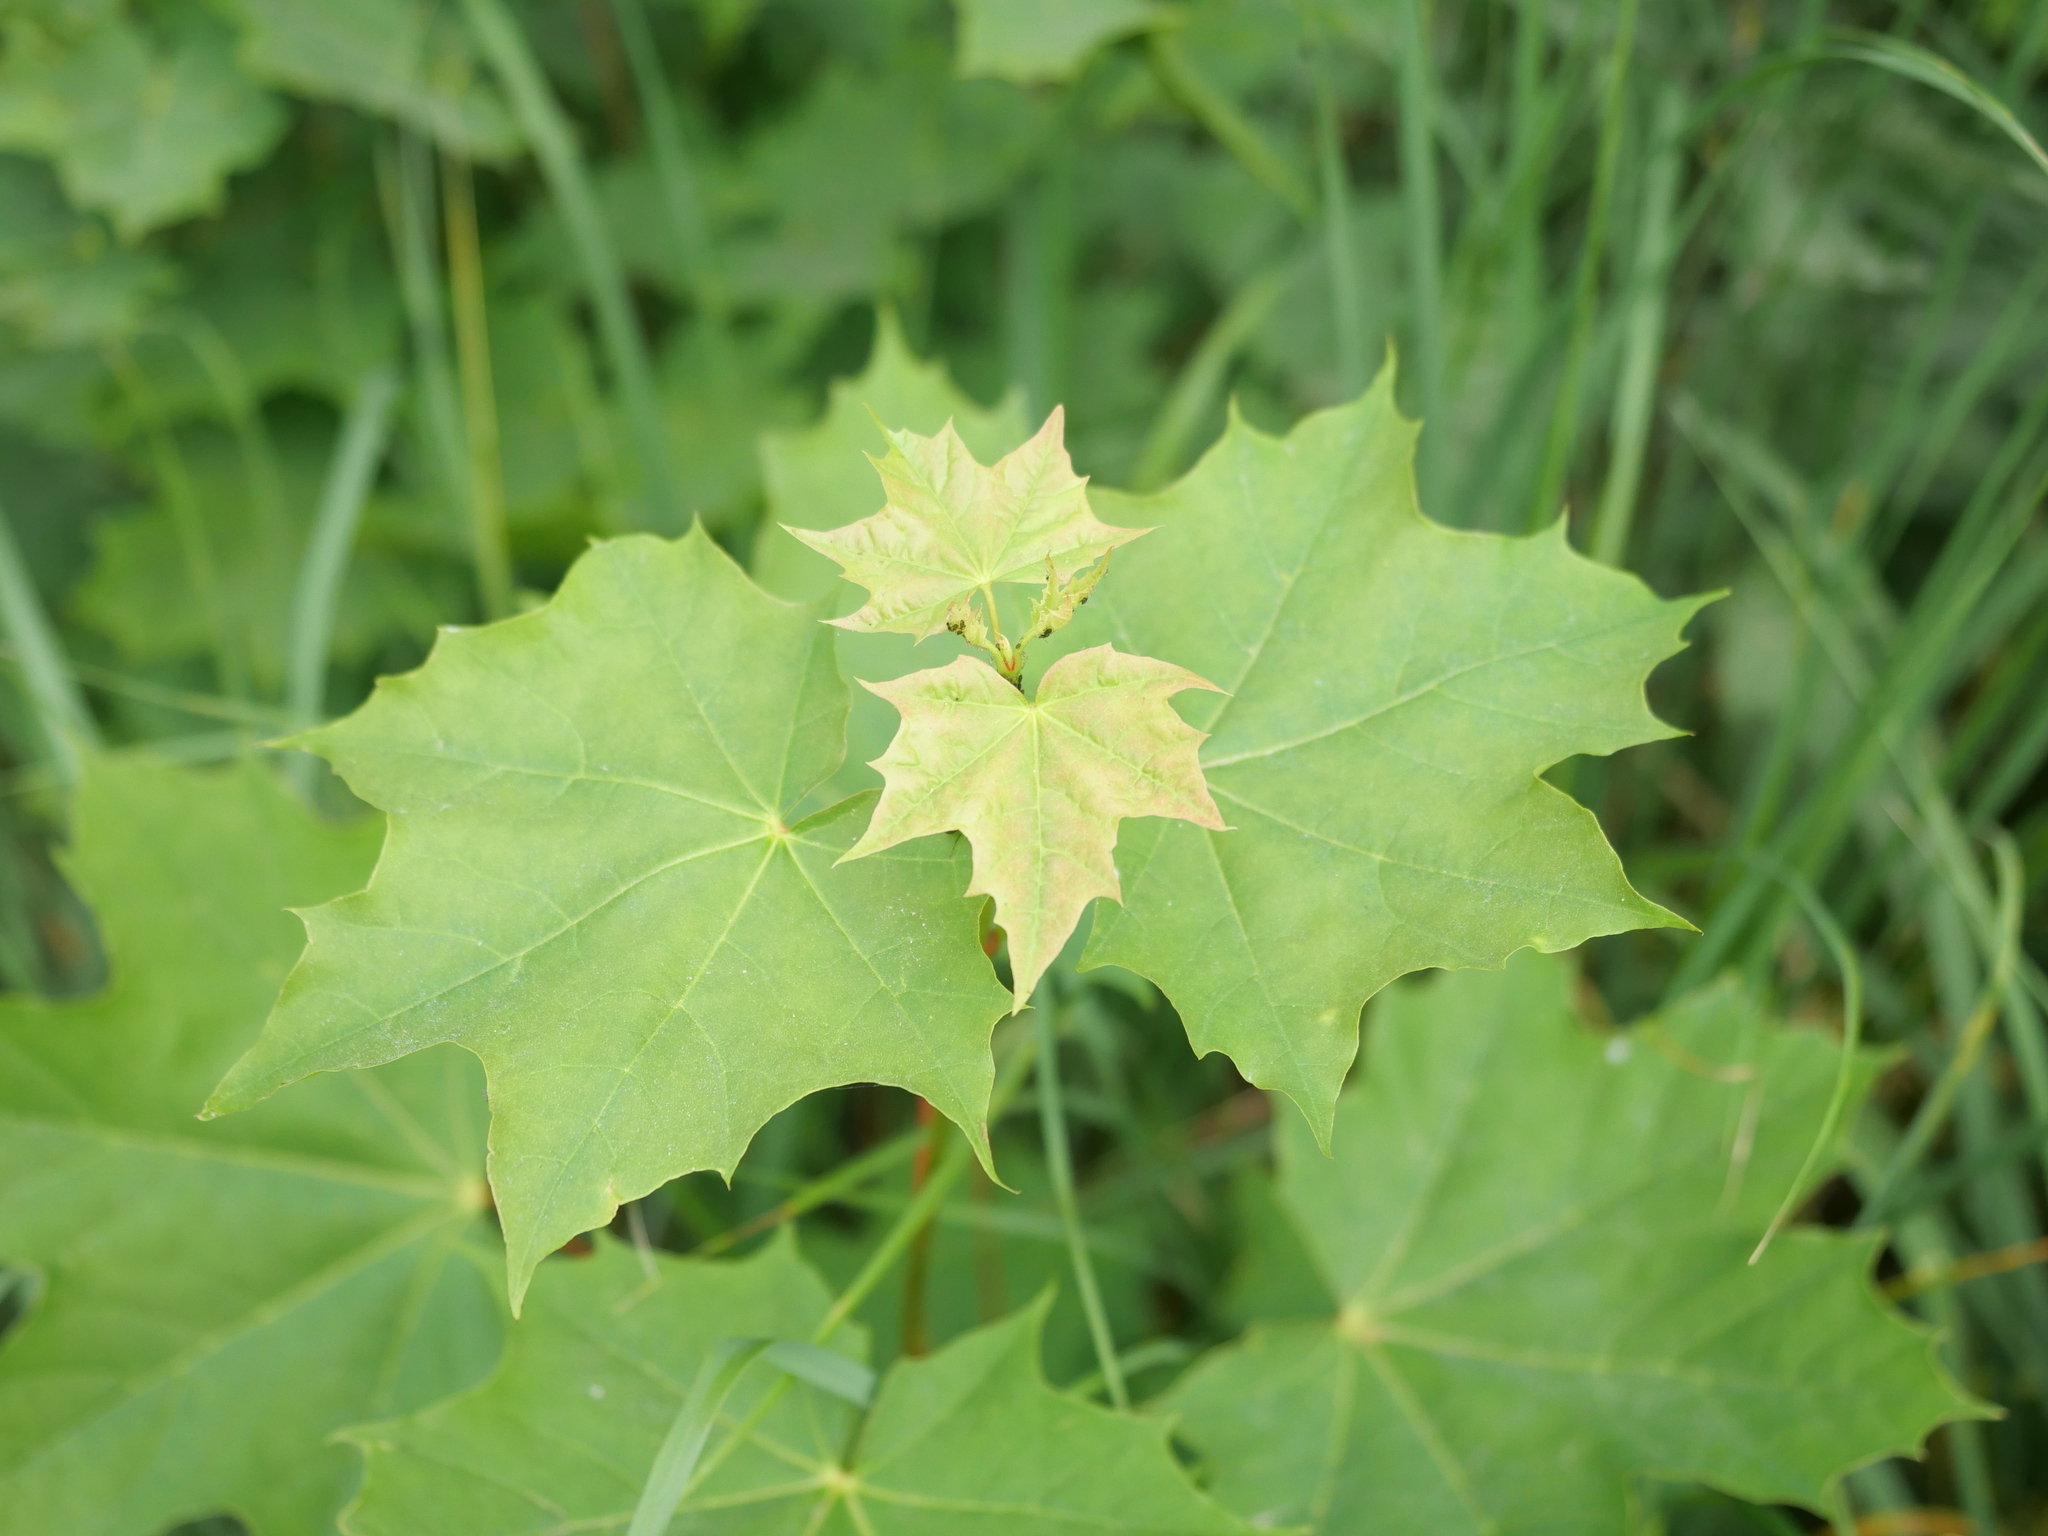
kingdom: Plantae
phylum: Tracheophyta
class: Magnoliopsida
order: Sapindales
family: Sapindaceae
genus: Acer
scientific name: Acer platanoides
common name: Norway maple
